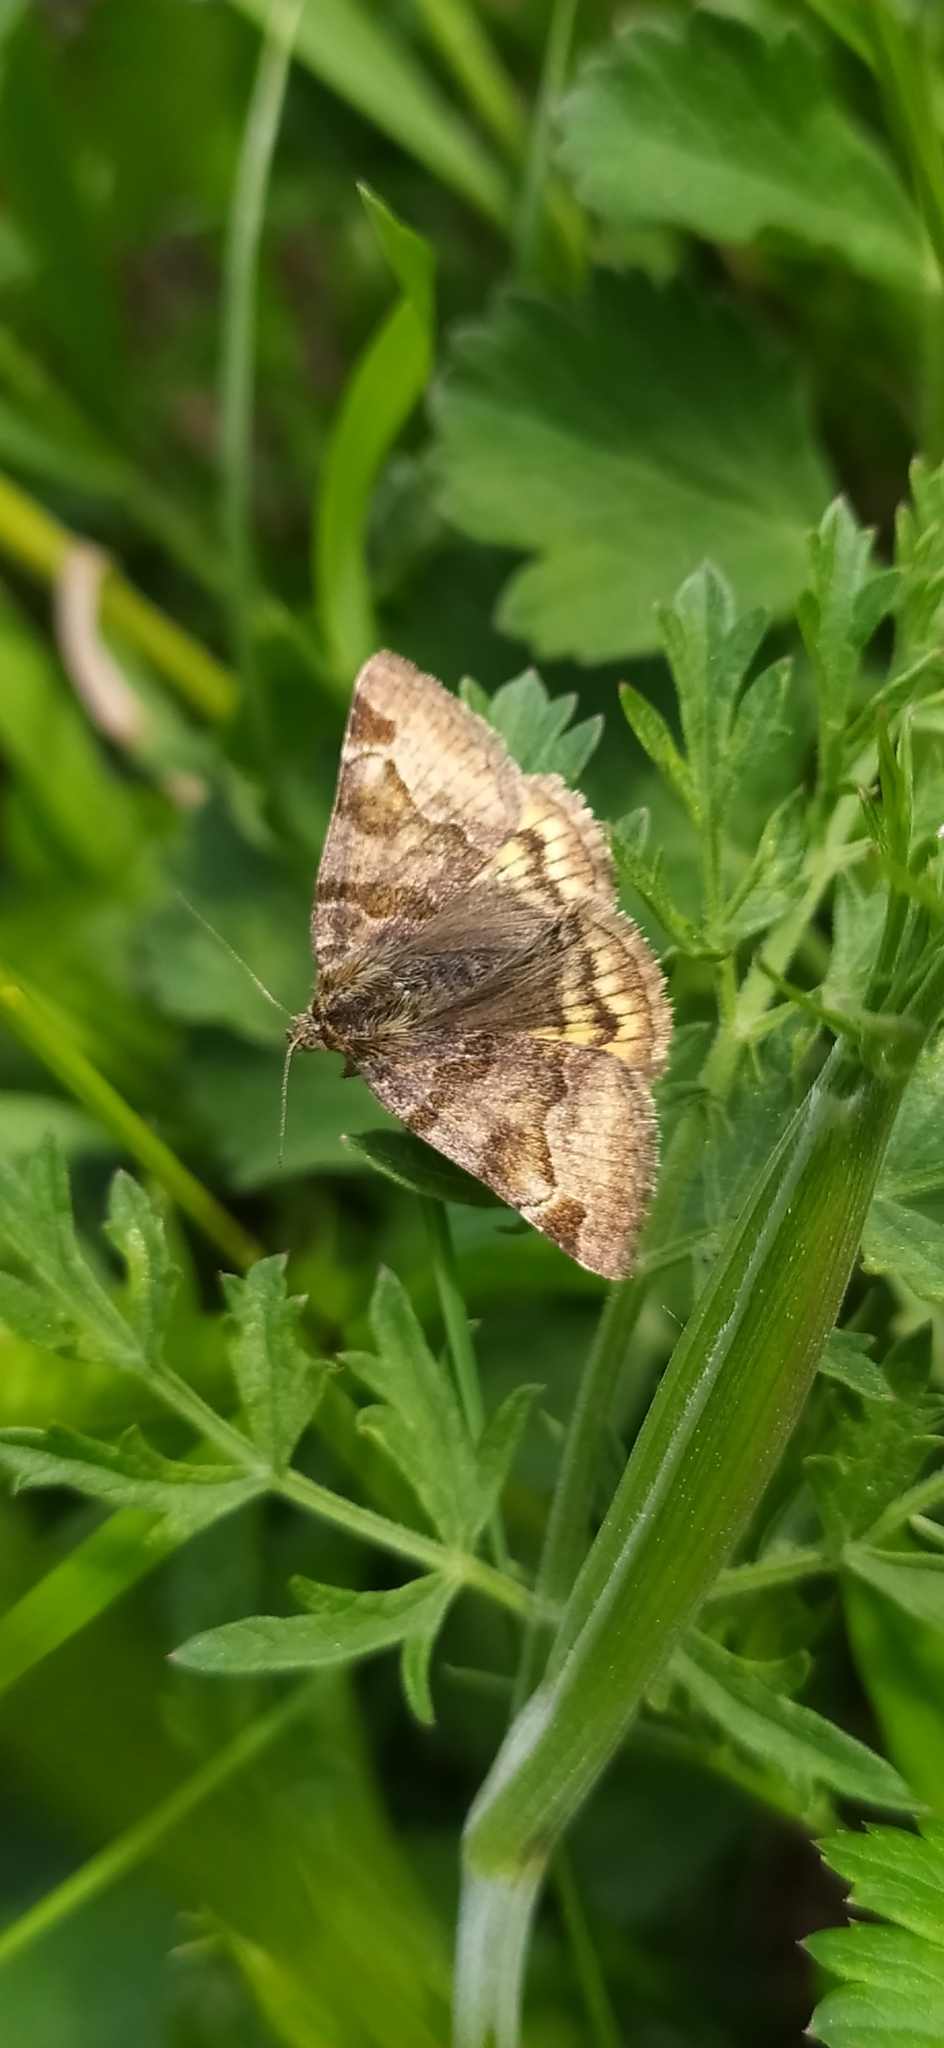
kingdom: Animalia
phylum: Arthropoda
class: Insecta
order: Lepidoptera
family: Erebidae
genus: Euclidia
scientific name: Euclidia glyphica
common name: Burnet companion
